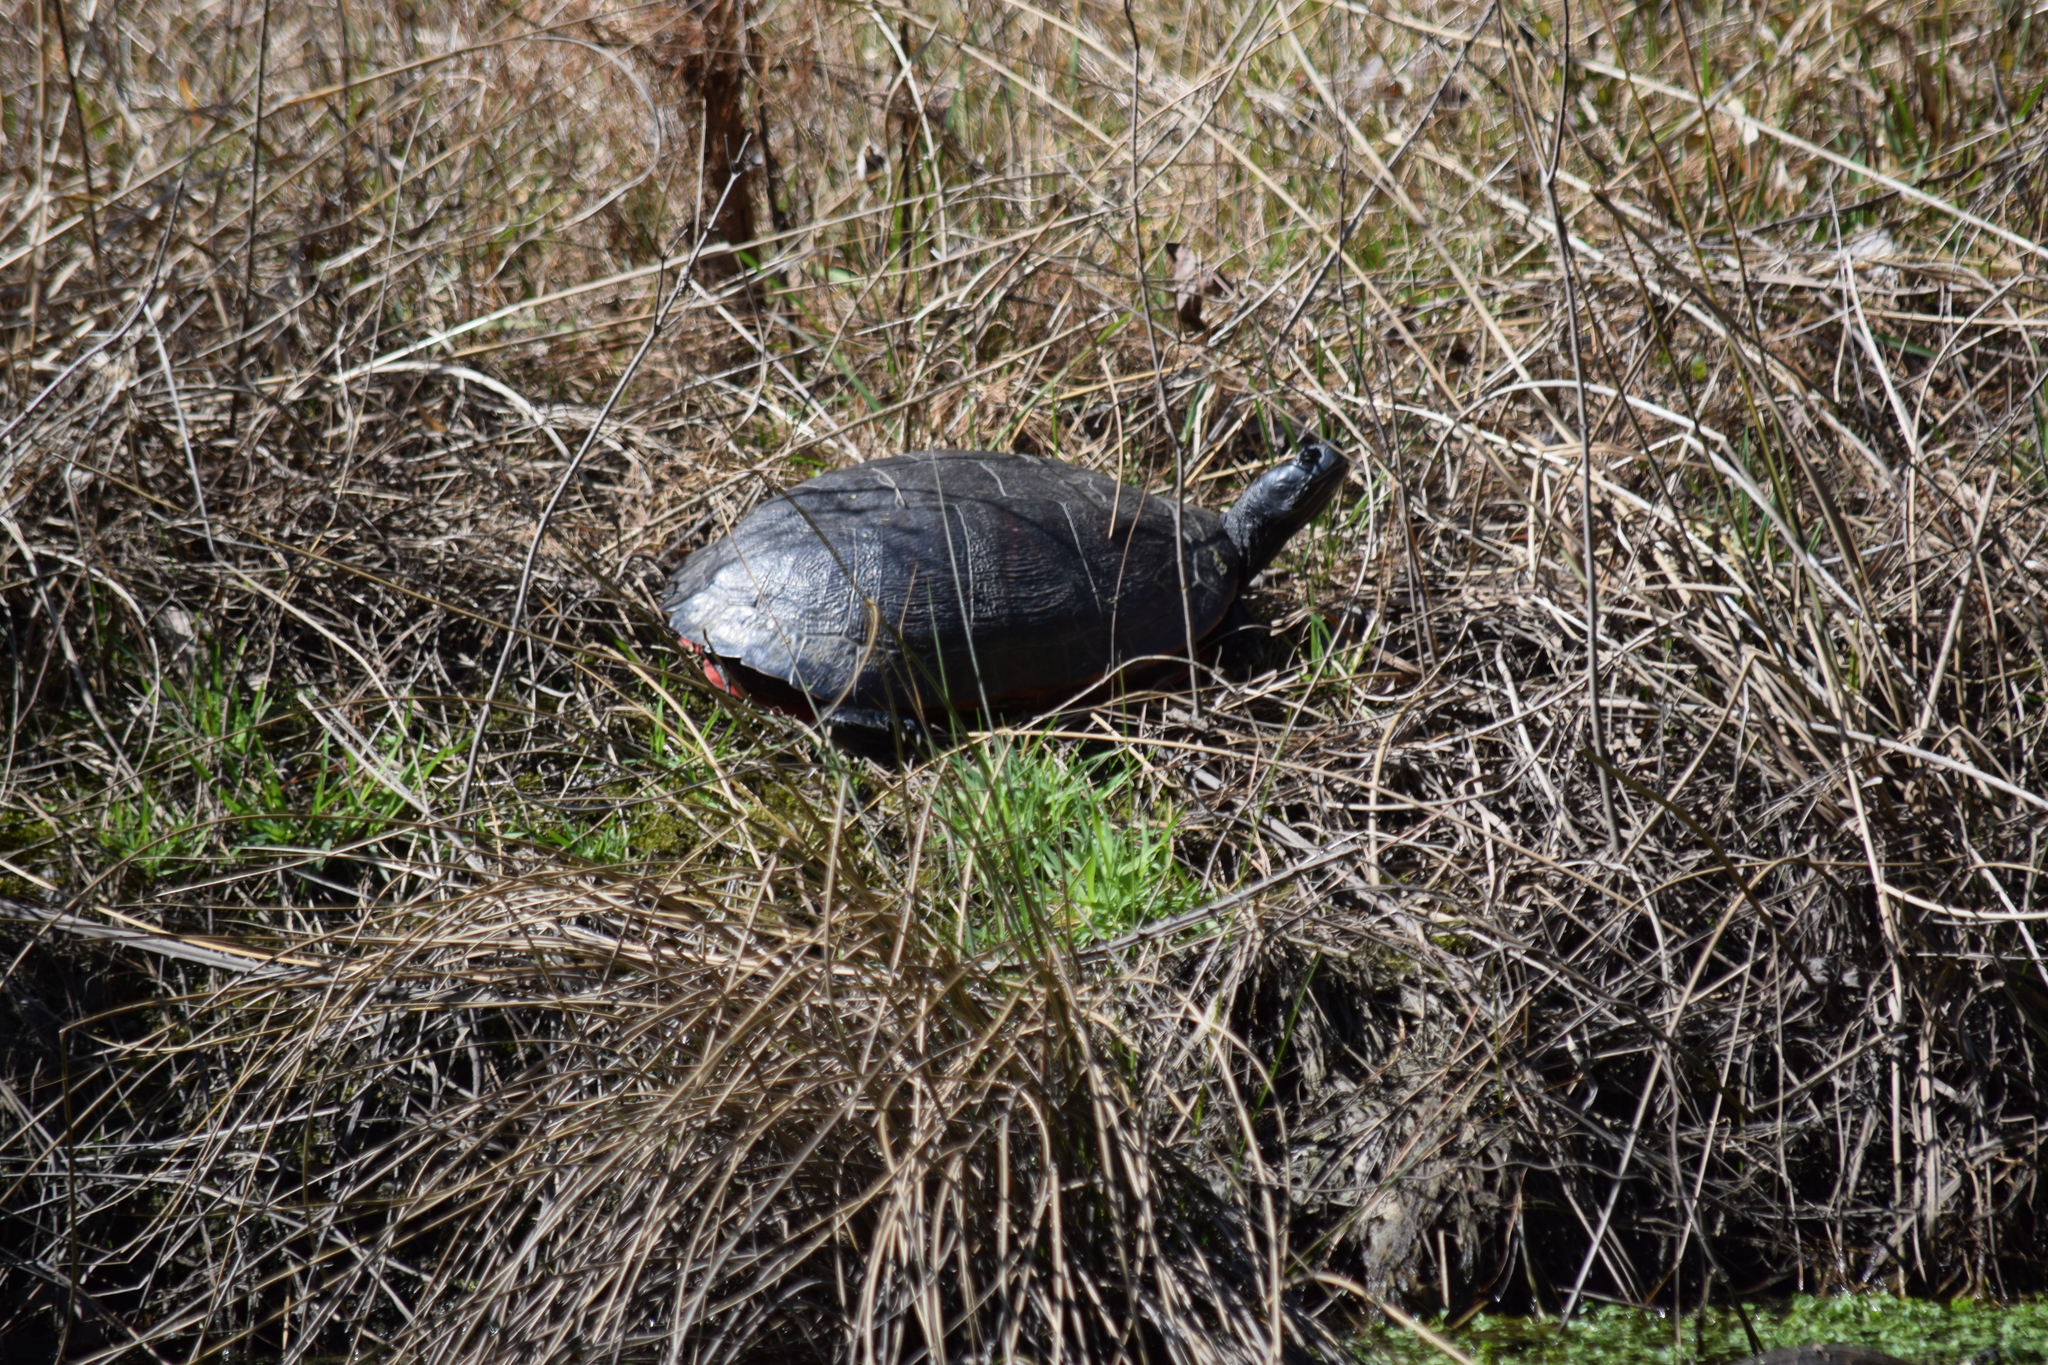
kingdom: Animalia
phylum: Chordata
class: Testudines
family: Emydidae
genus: Pseudemys
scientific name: Pseudemys rubriventris
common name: American red-bellied turtle
